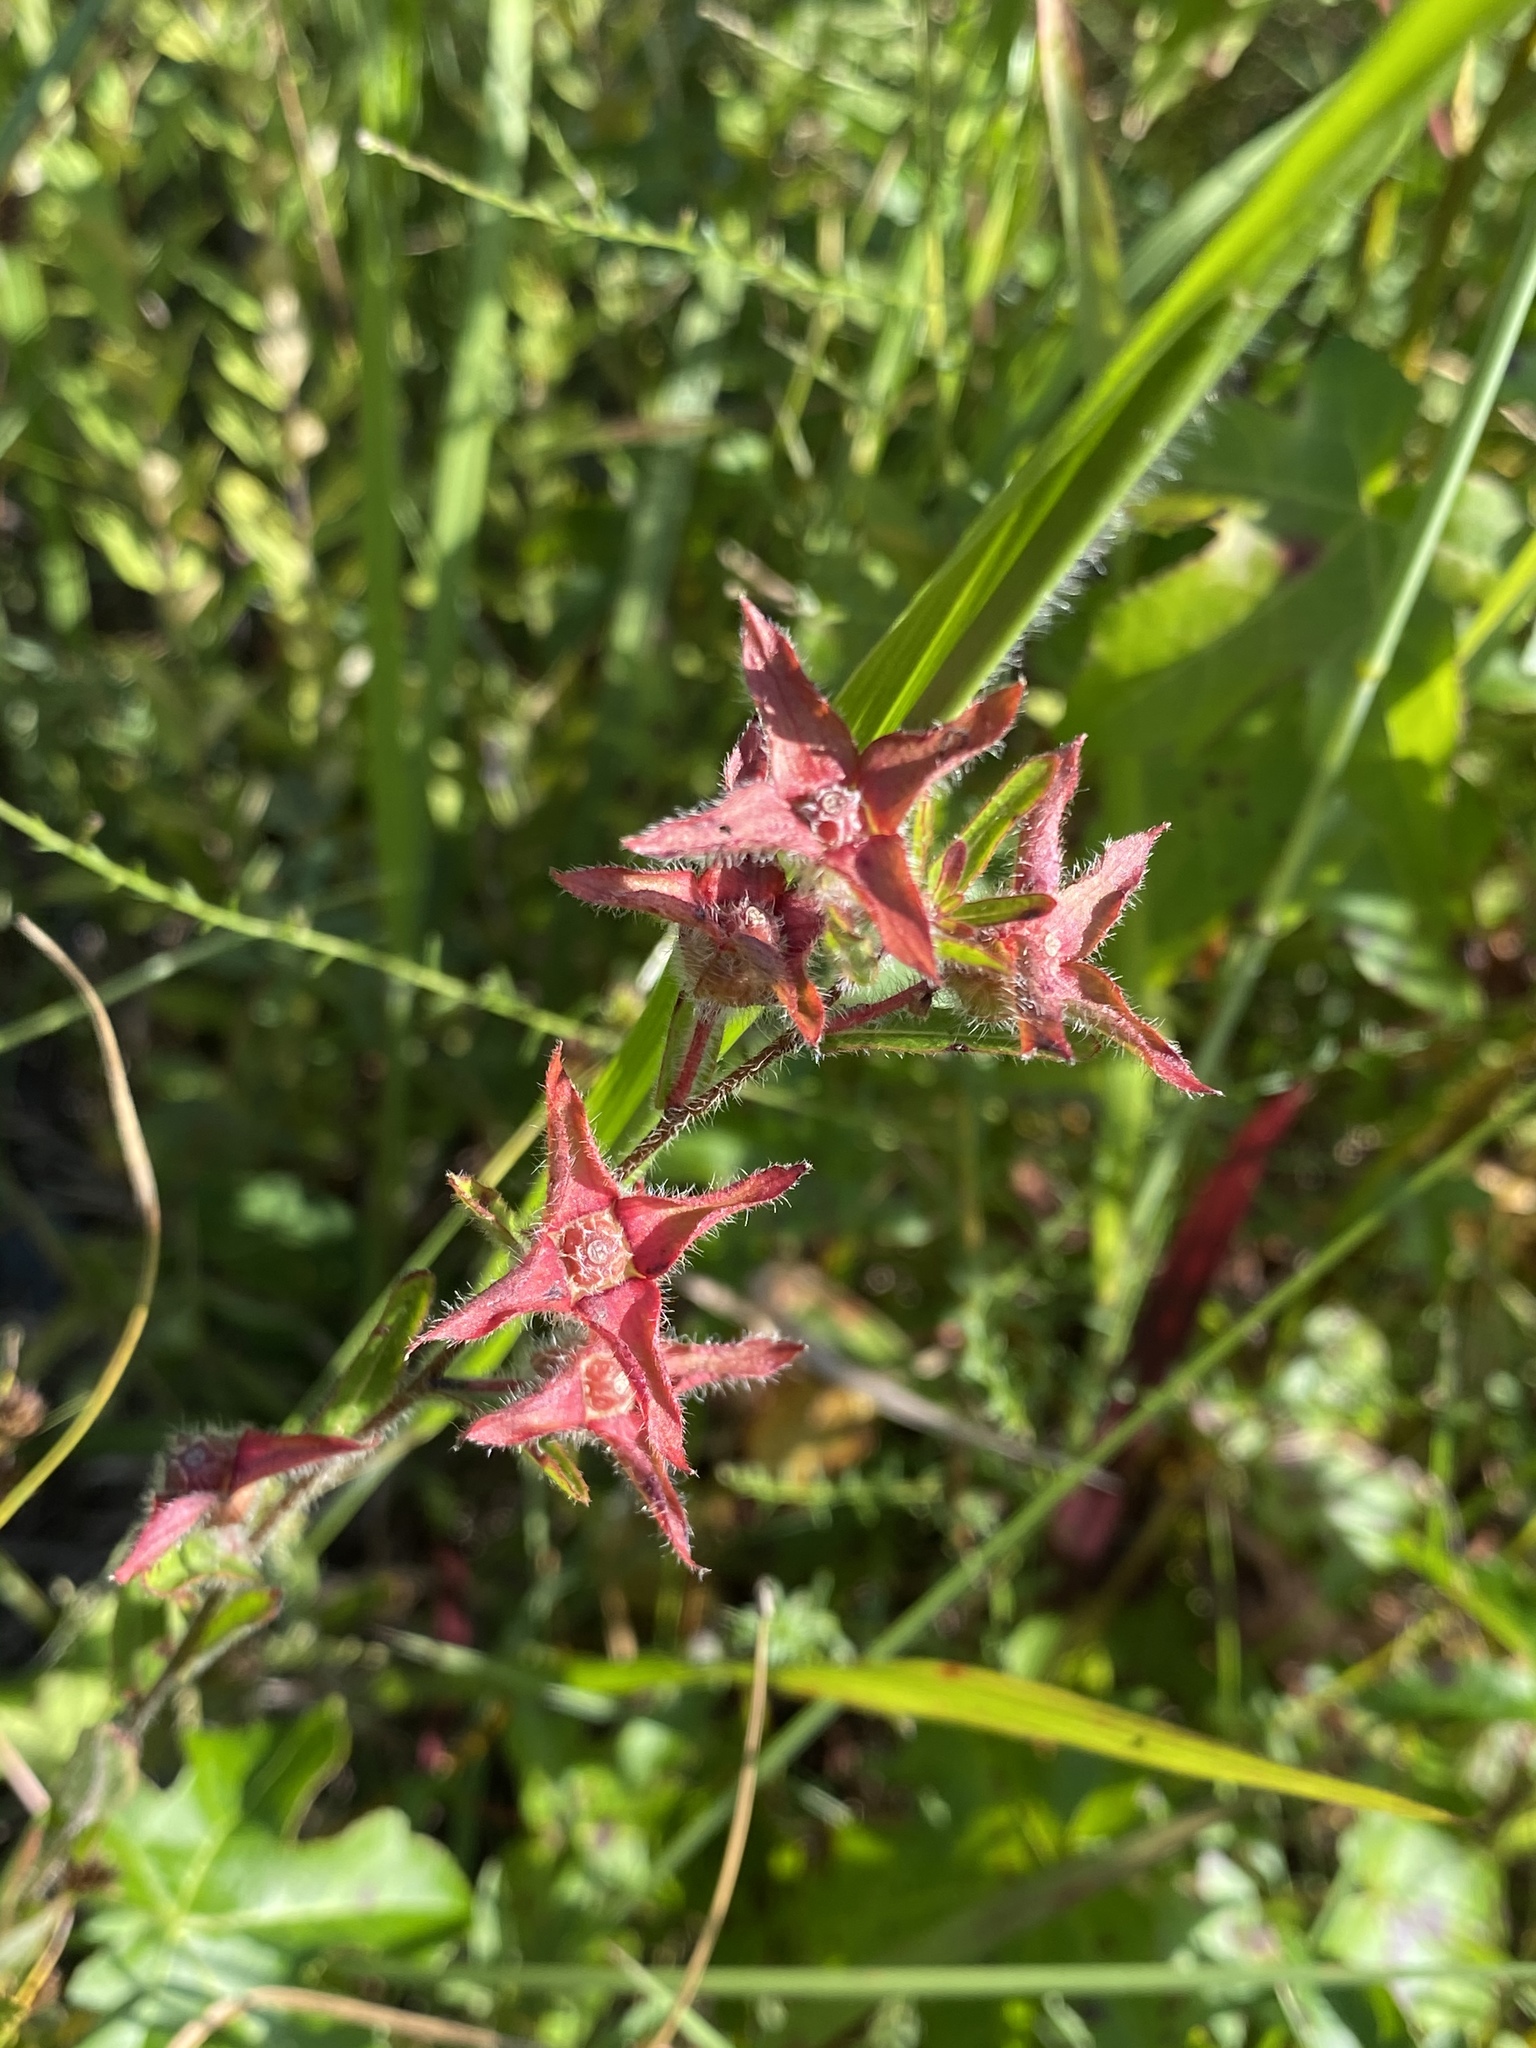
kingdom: Plantae
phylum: Tracheophyta
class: Magnoliopsida
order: Myrtales
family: Onagraceae
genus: Ludwigia
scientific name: Ludwigia hirtella
